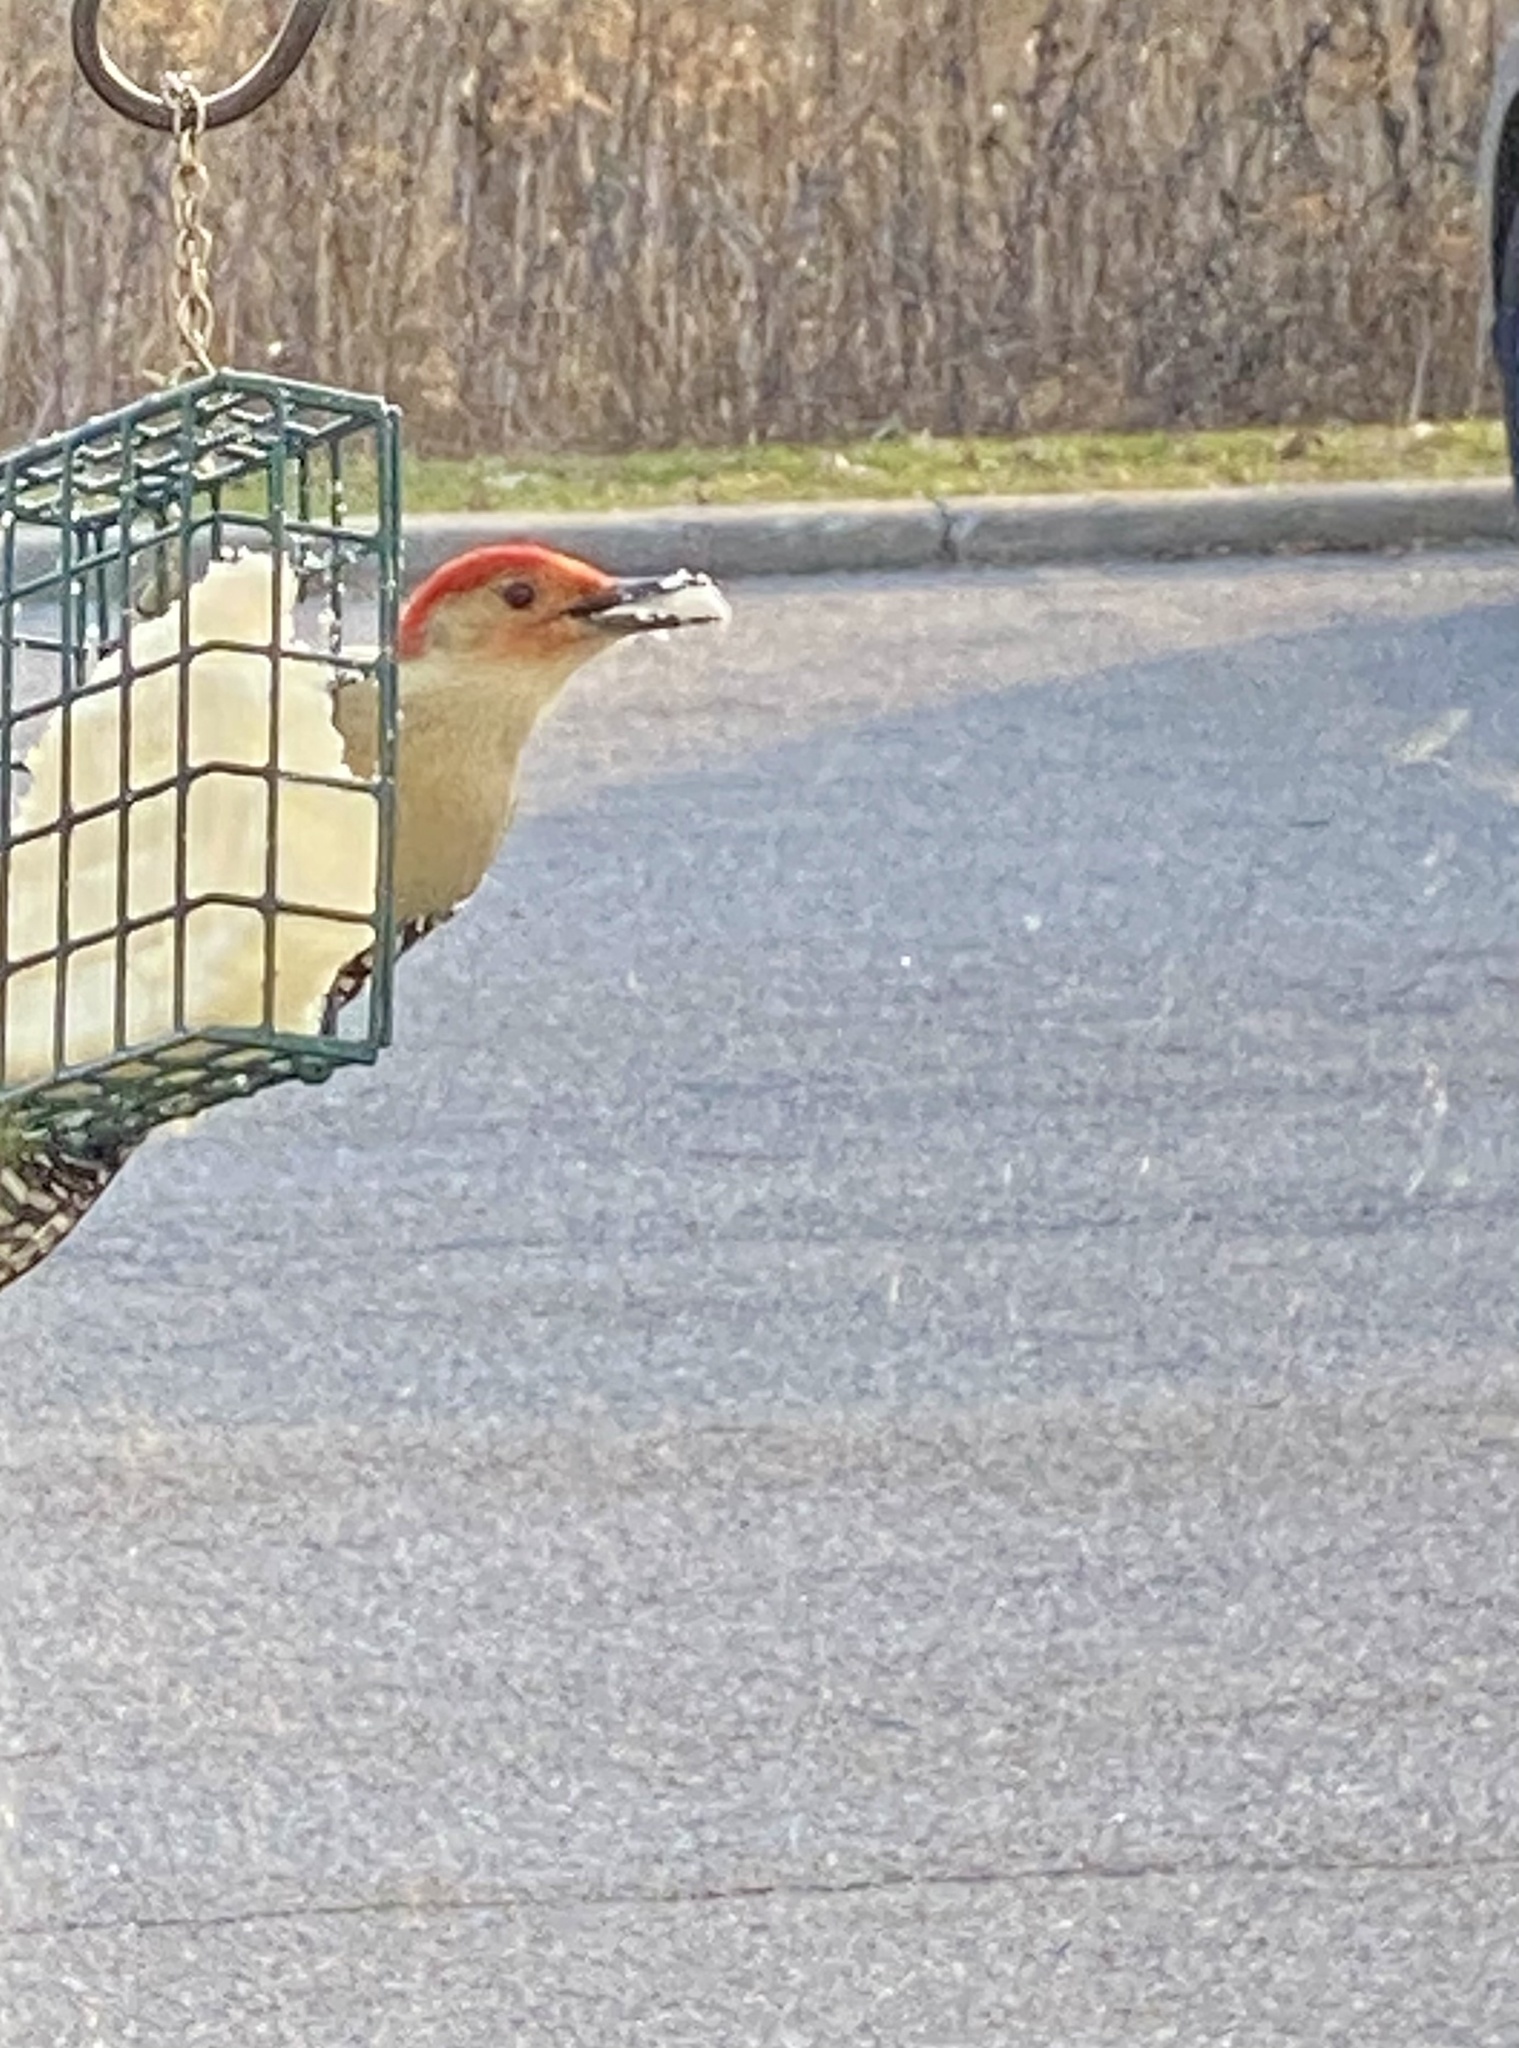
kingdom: Animalia
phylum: Chordata
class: Aves
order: Piciformes
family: Picidae
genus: Melanerpes
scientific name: Melanerpes carolinus
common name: Red-bellied woodpecker
